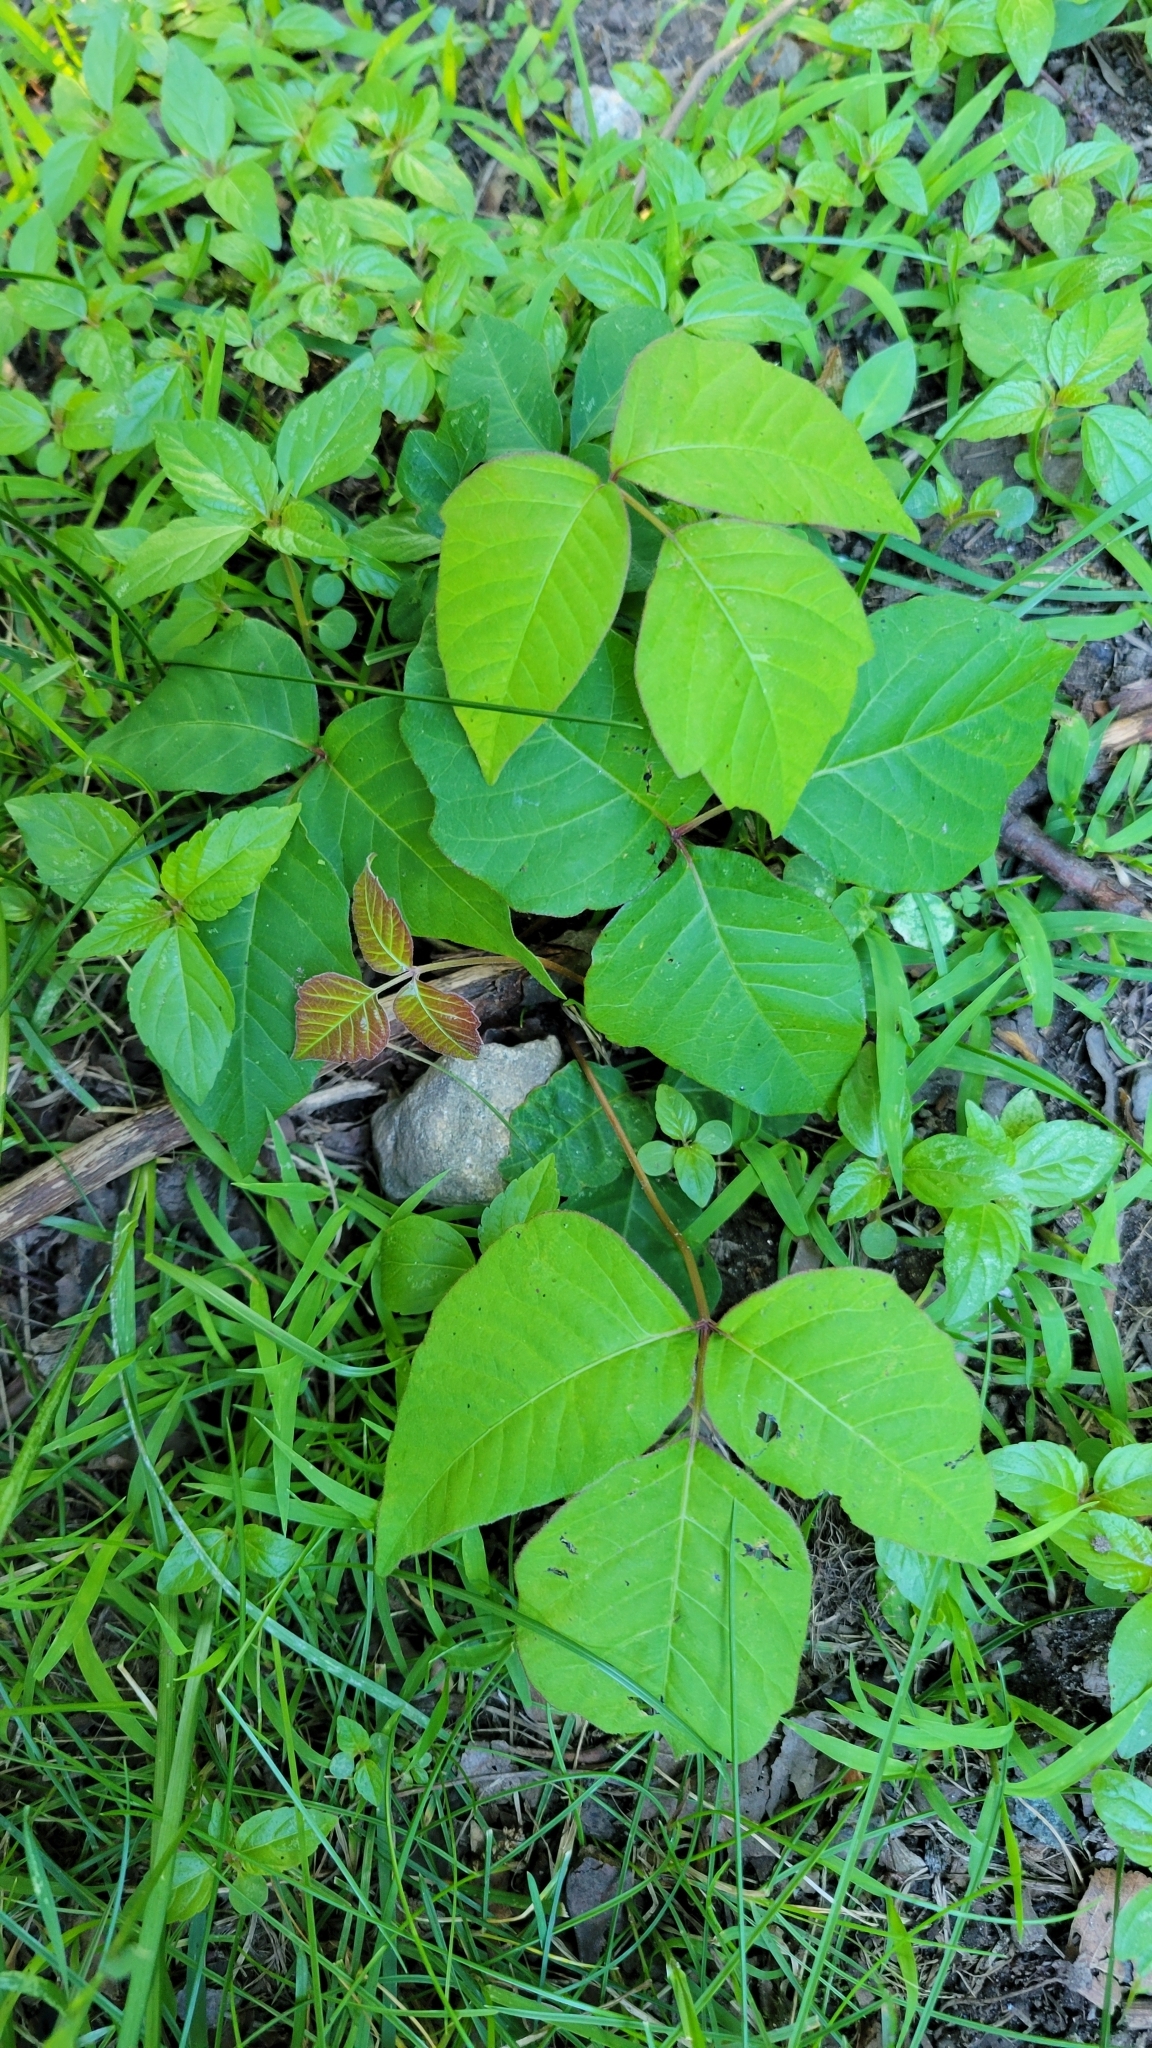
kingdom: Plantae
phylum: Tracheophyta
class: Magnoliopsida
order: Sapindales
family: Anacardiaceae
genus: Toxicodendron
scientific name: Toxicodendron radicans
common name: Poison ivy
